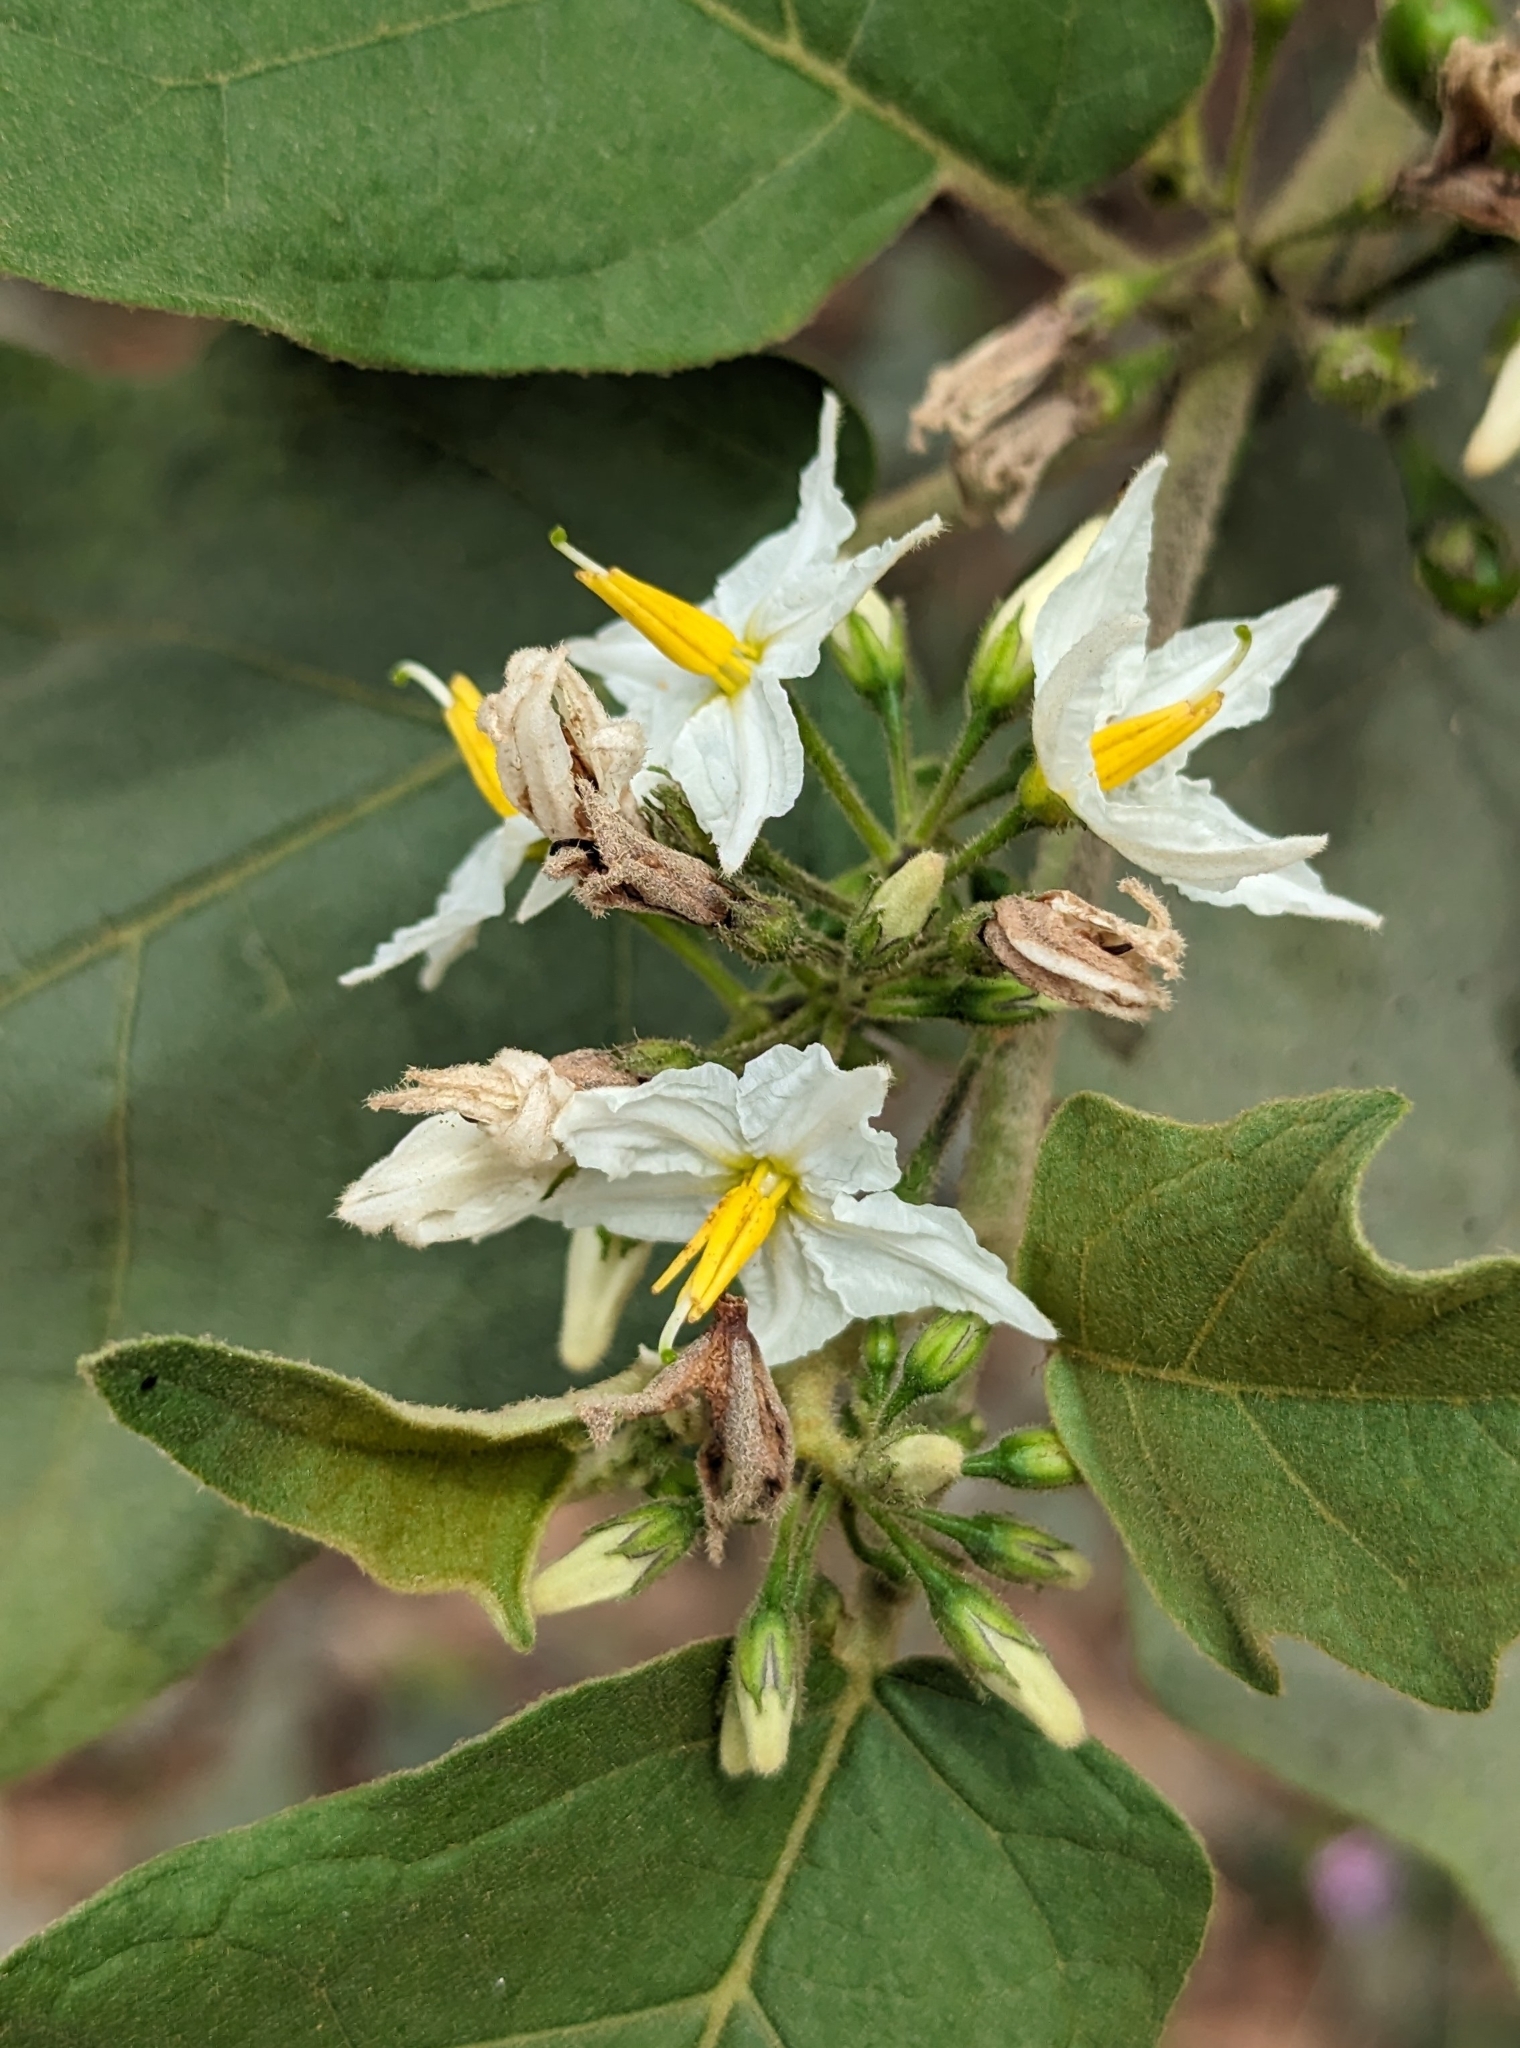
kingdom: Plantae
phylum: Tracheophyta
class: Magnoliopsida
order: Solanales
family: Solanaceae
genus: Solanum
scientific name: Solanum torvum
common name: Turkey berry
